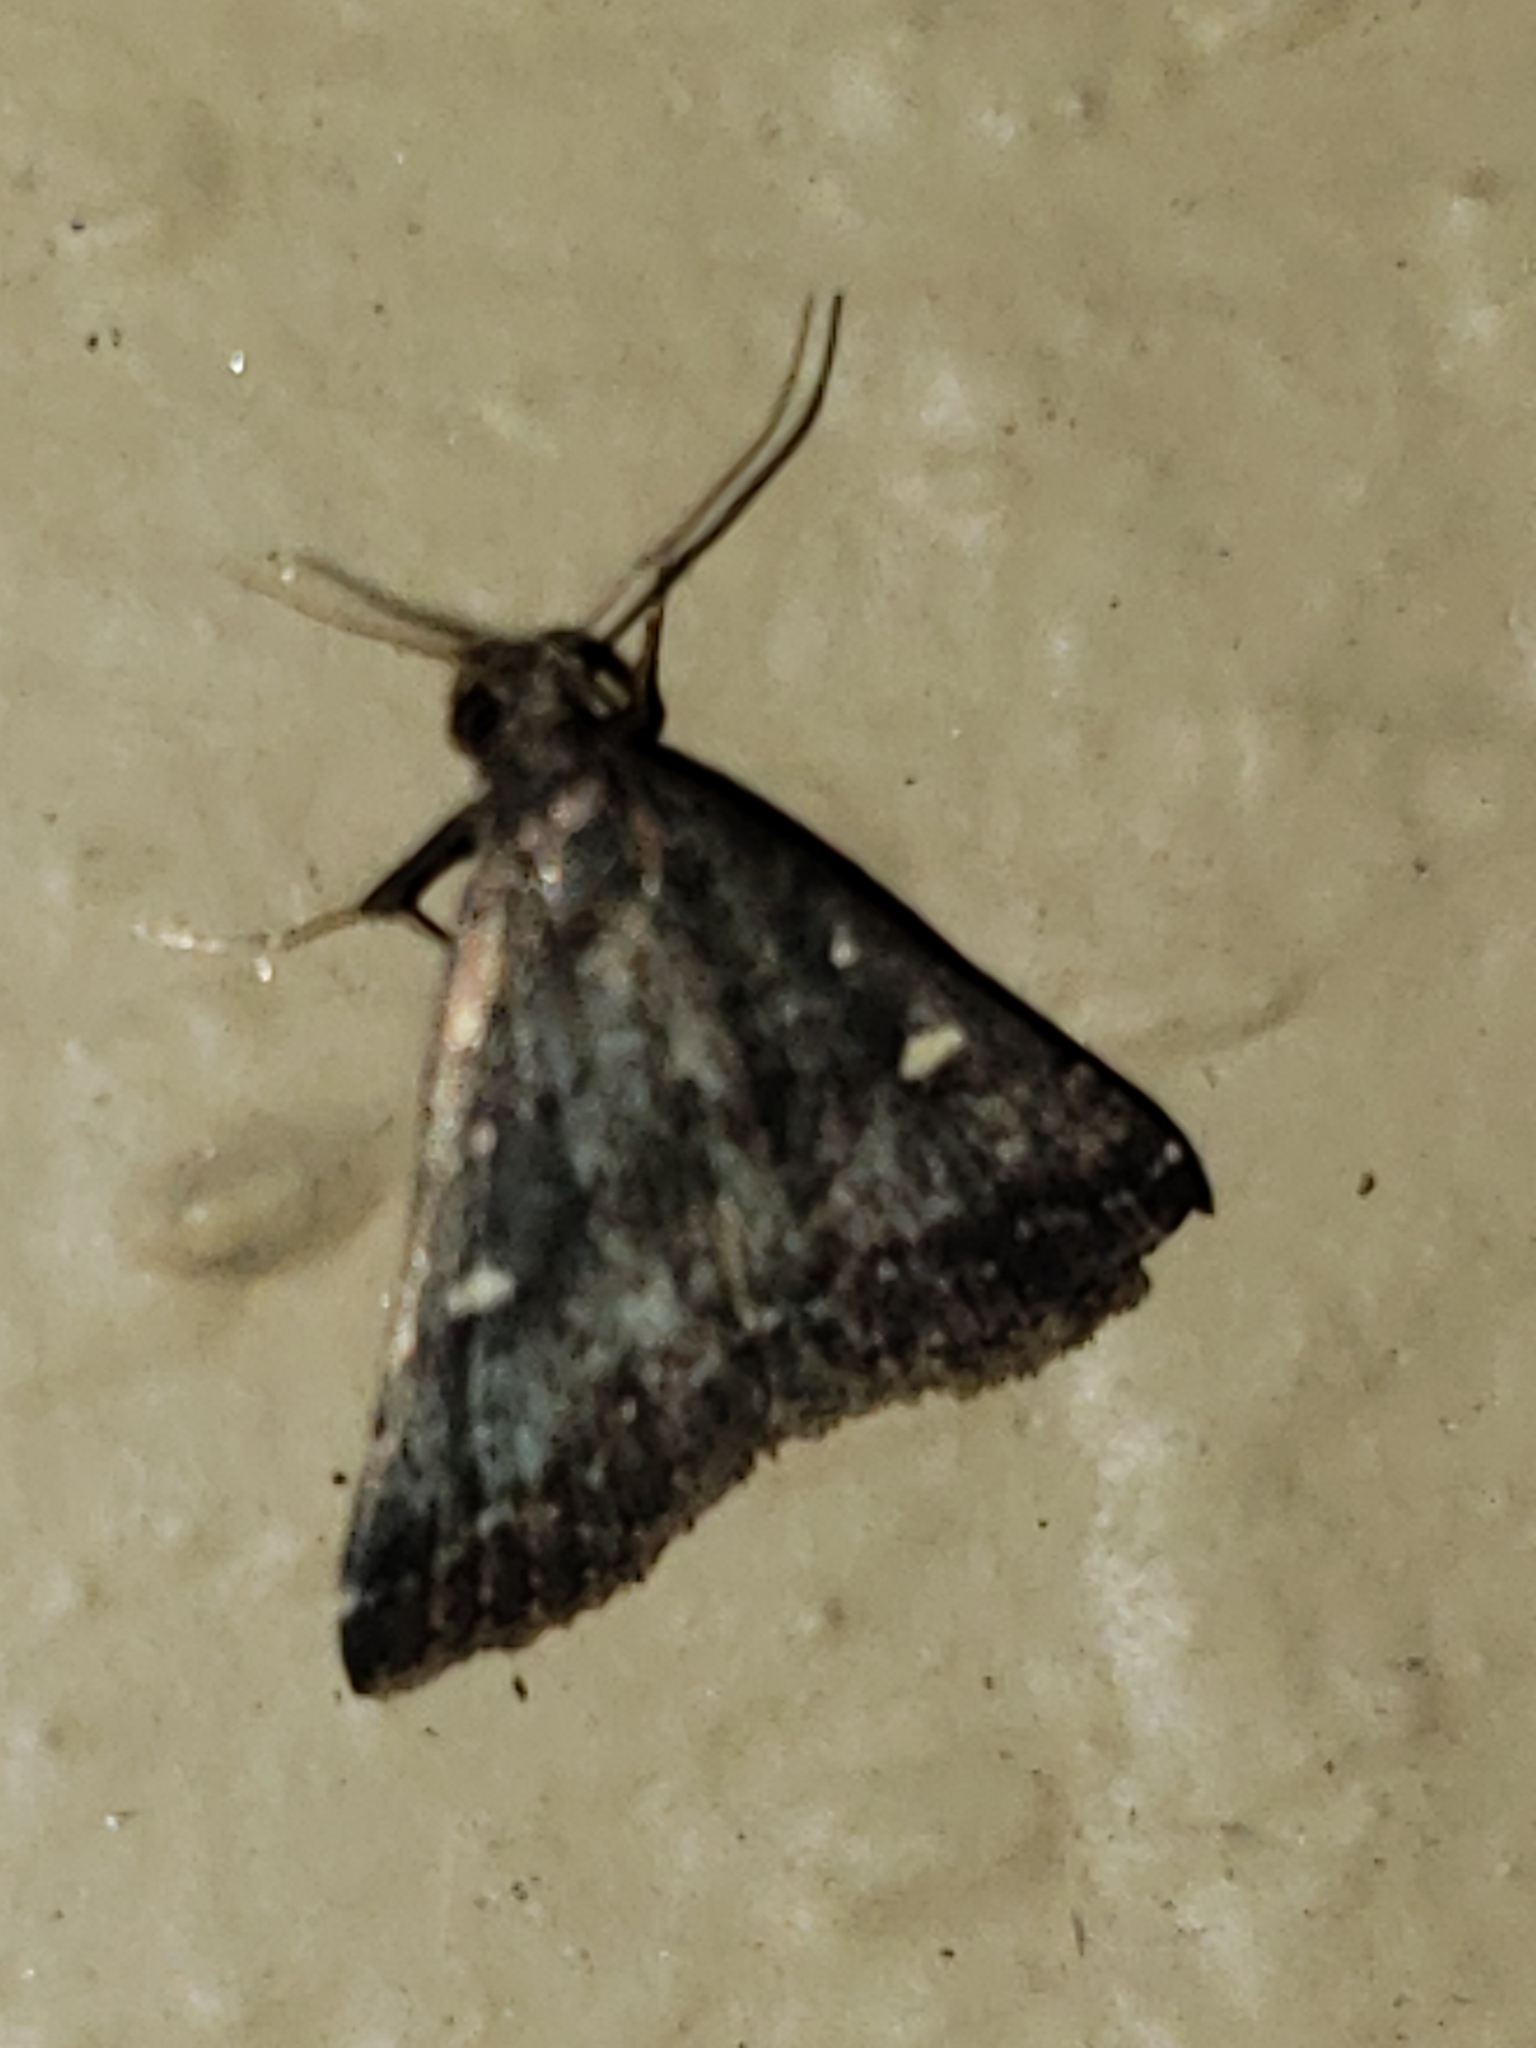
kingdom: Animalia
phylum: Arthropoda
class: Insecta
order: Lepidoptera
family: Erebidae
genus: Tetanolita
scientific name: Tetanolita mynesalis
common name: Smoky tetanolita moth
